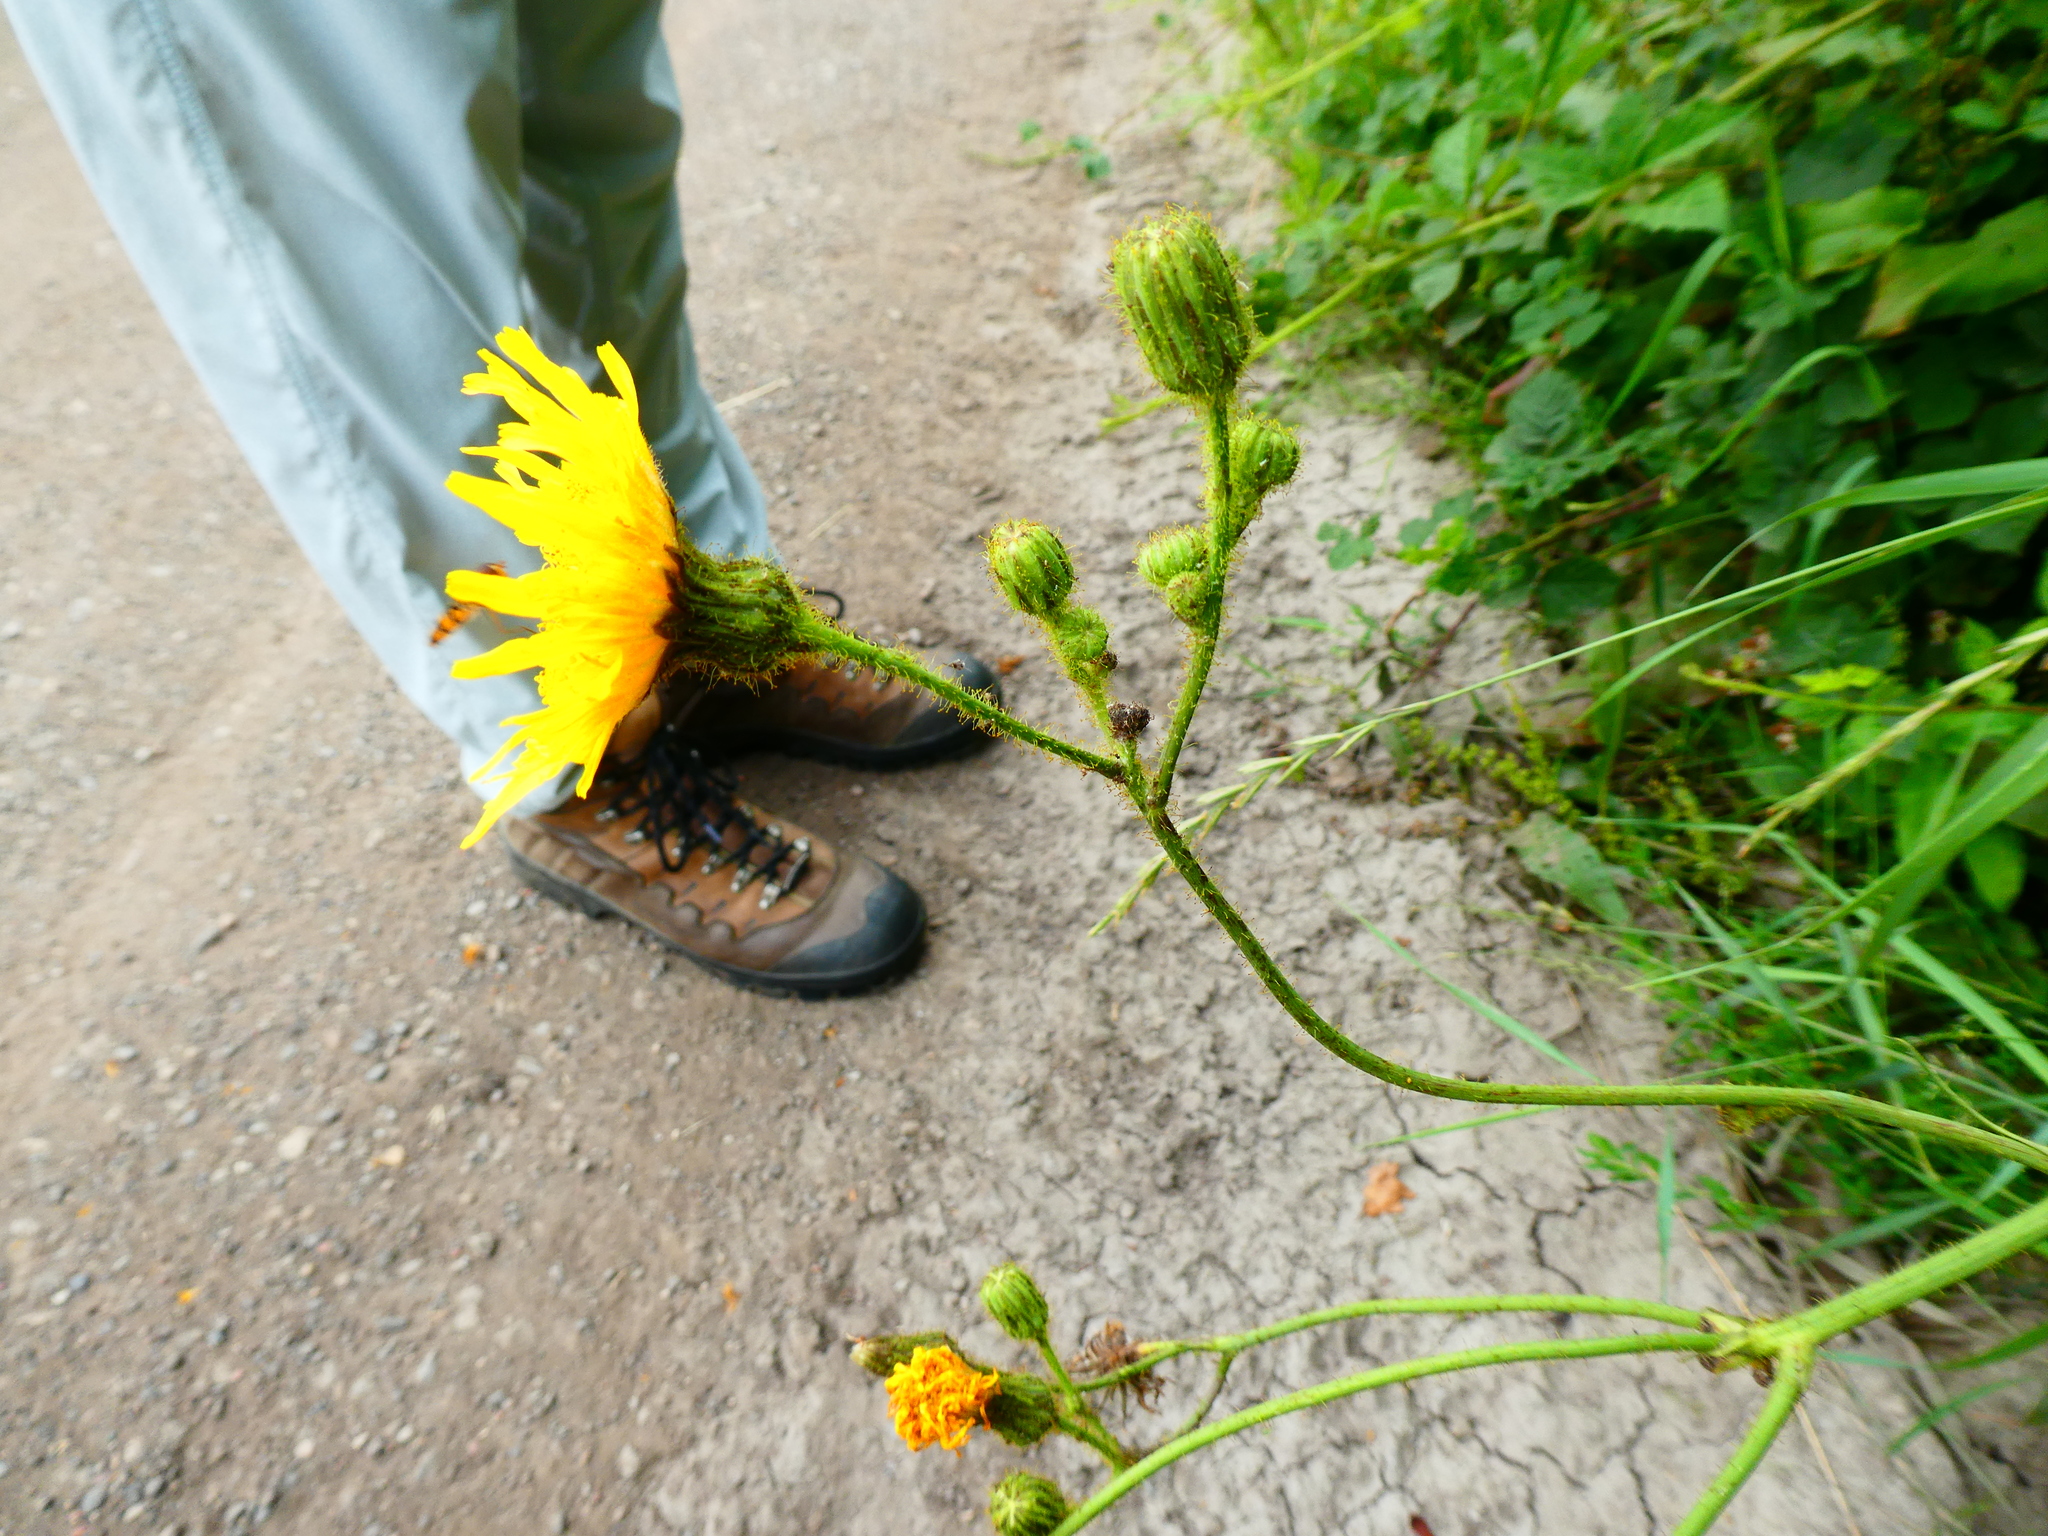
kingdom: Plantae
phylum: Tracheophyta
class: Magnoliopsida
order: Asterales
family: Asteraceae
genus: Sonchus
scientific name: Sonchus arvensis
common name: Perennial sow-thistle
